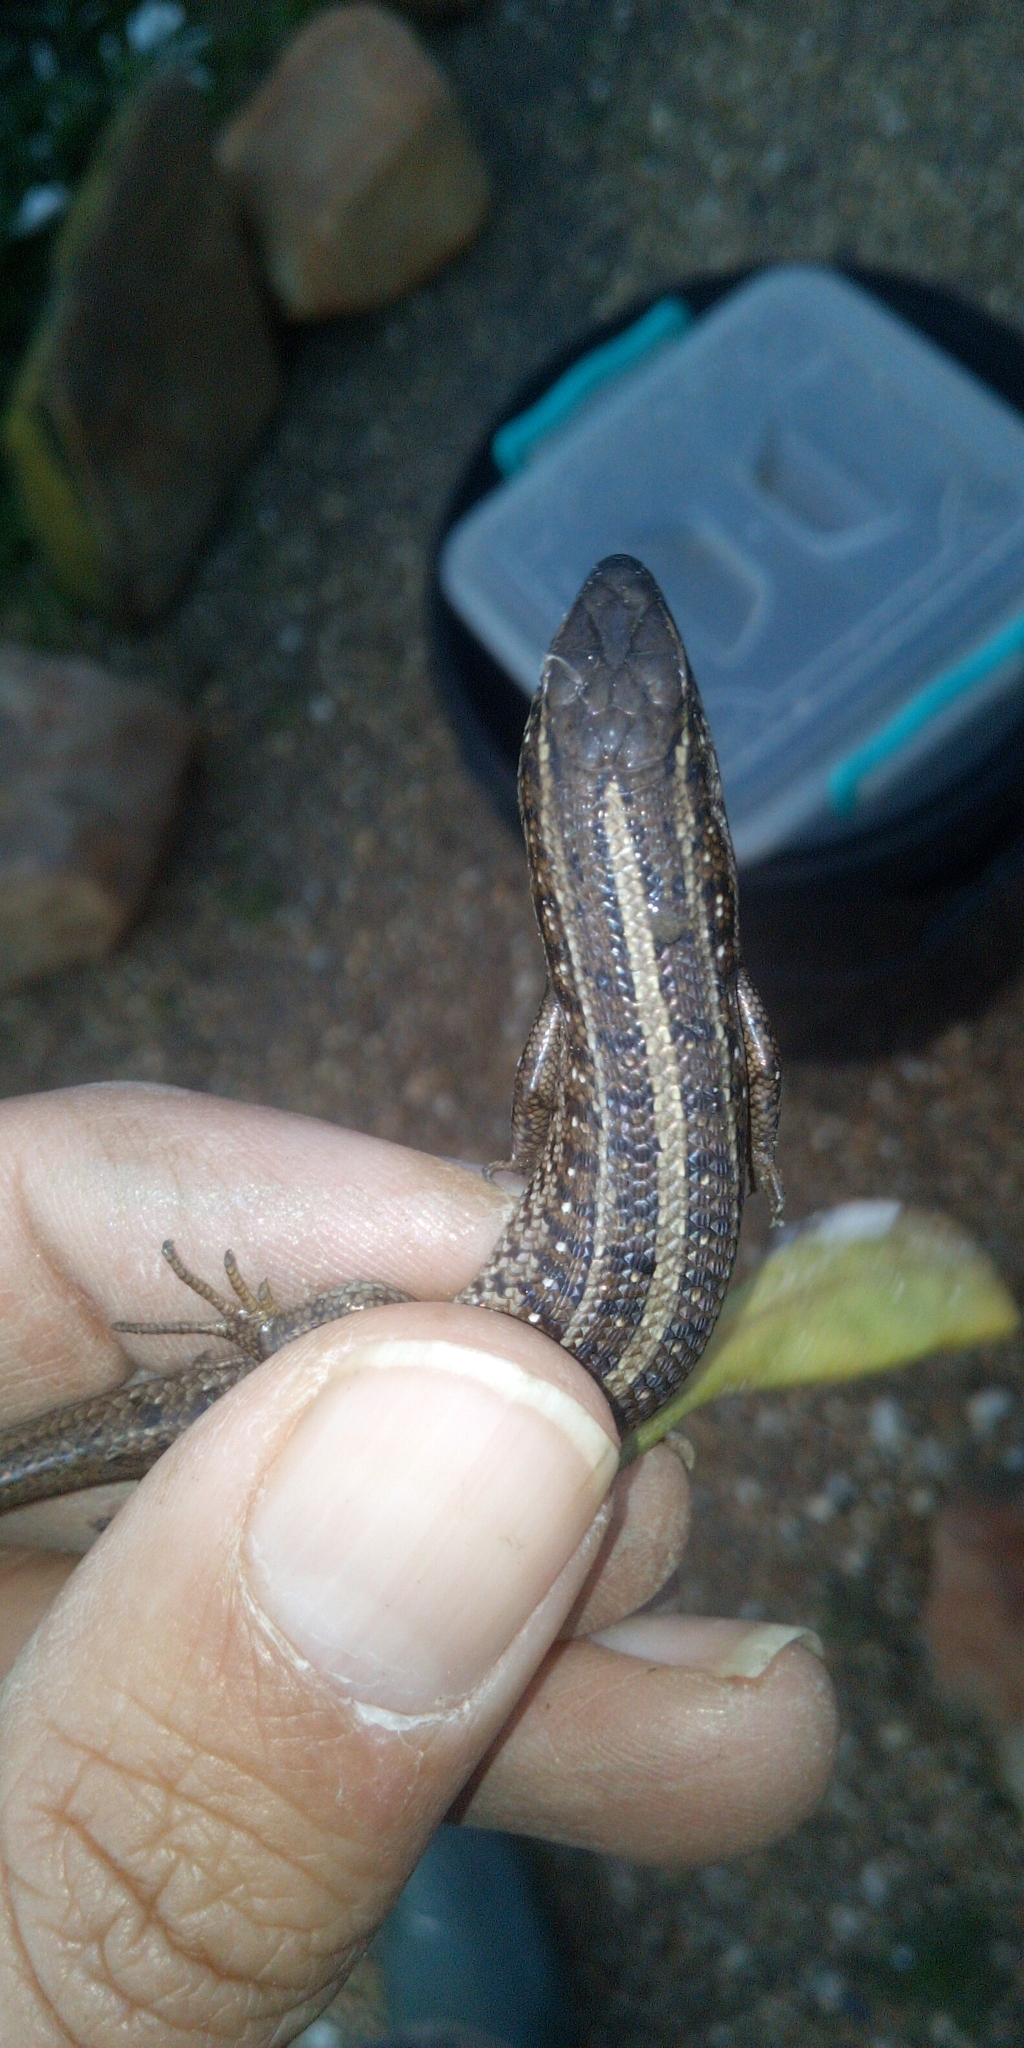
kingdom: Animalia
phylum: Chordata
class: Squamata
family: Scincidae
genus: Trachylepis
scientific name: Trachylepis capensis
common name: Cape skink
